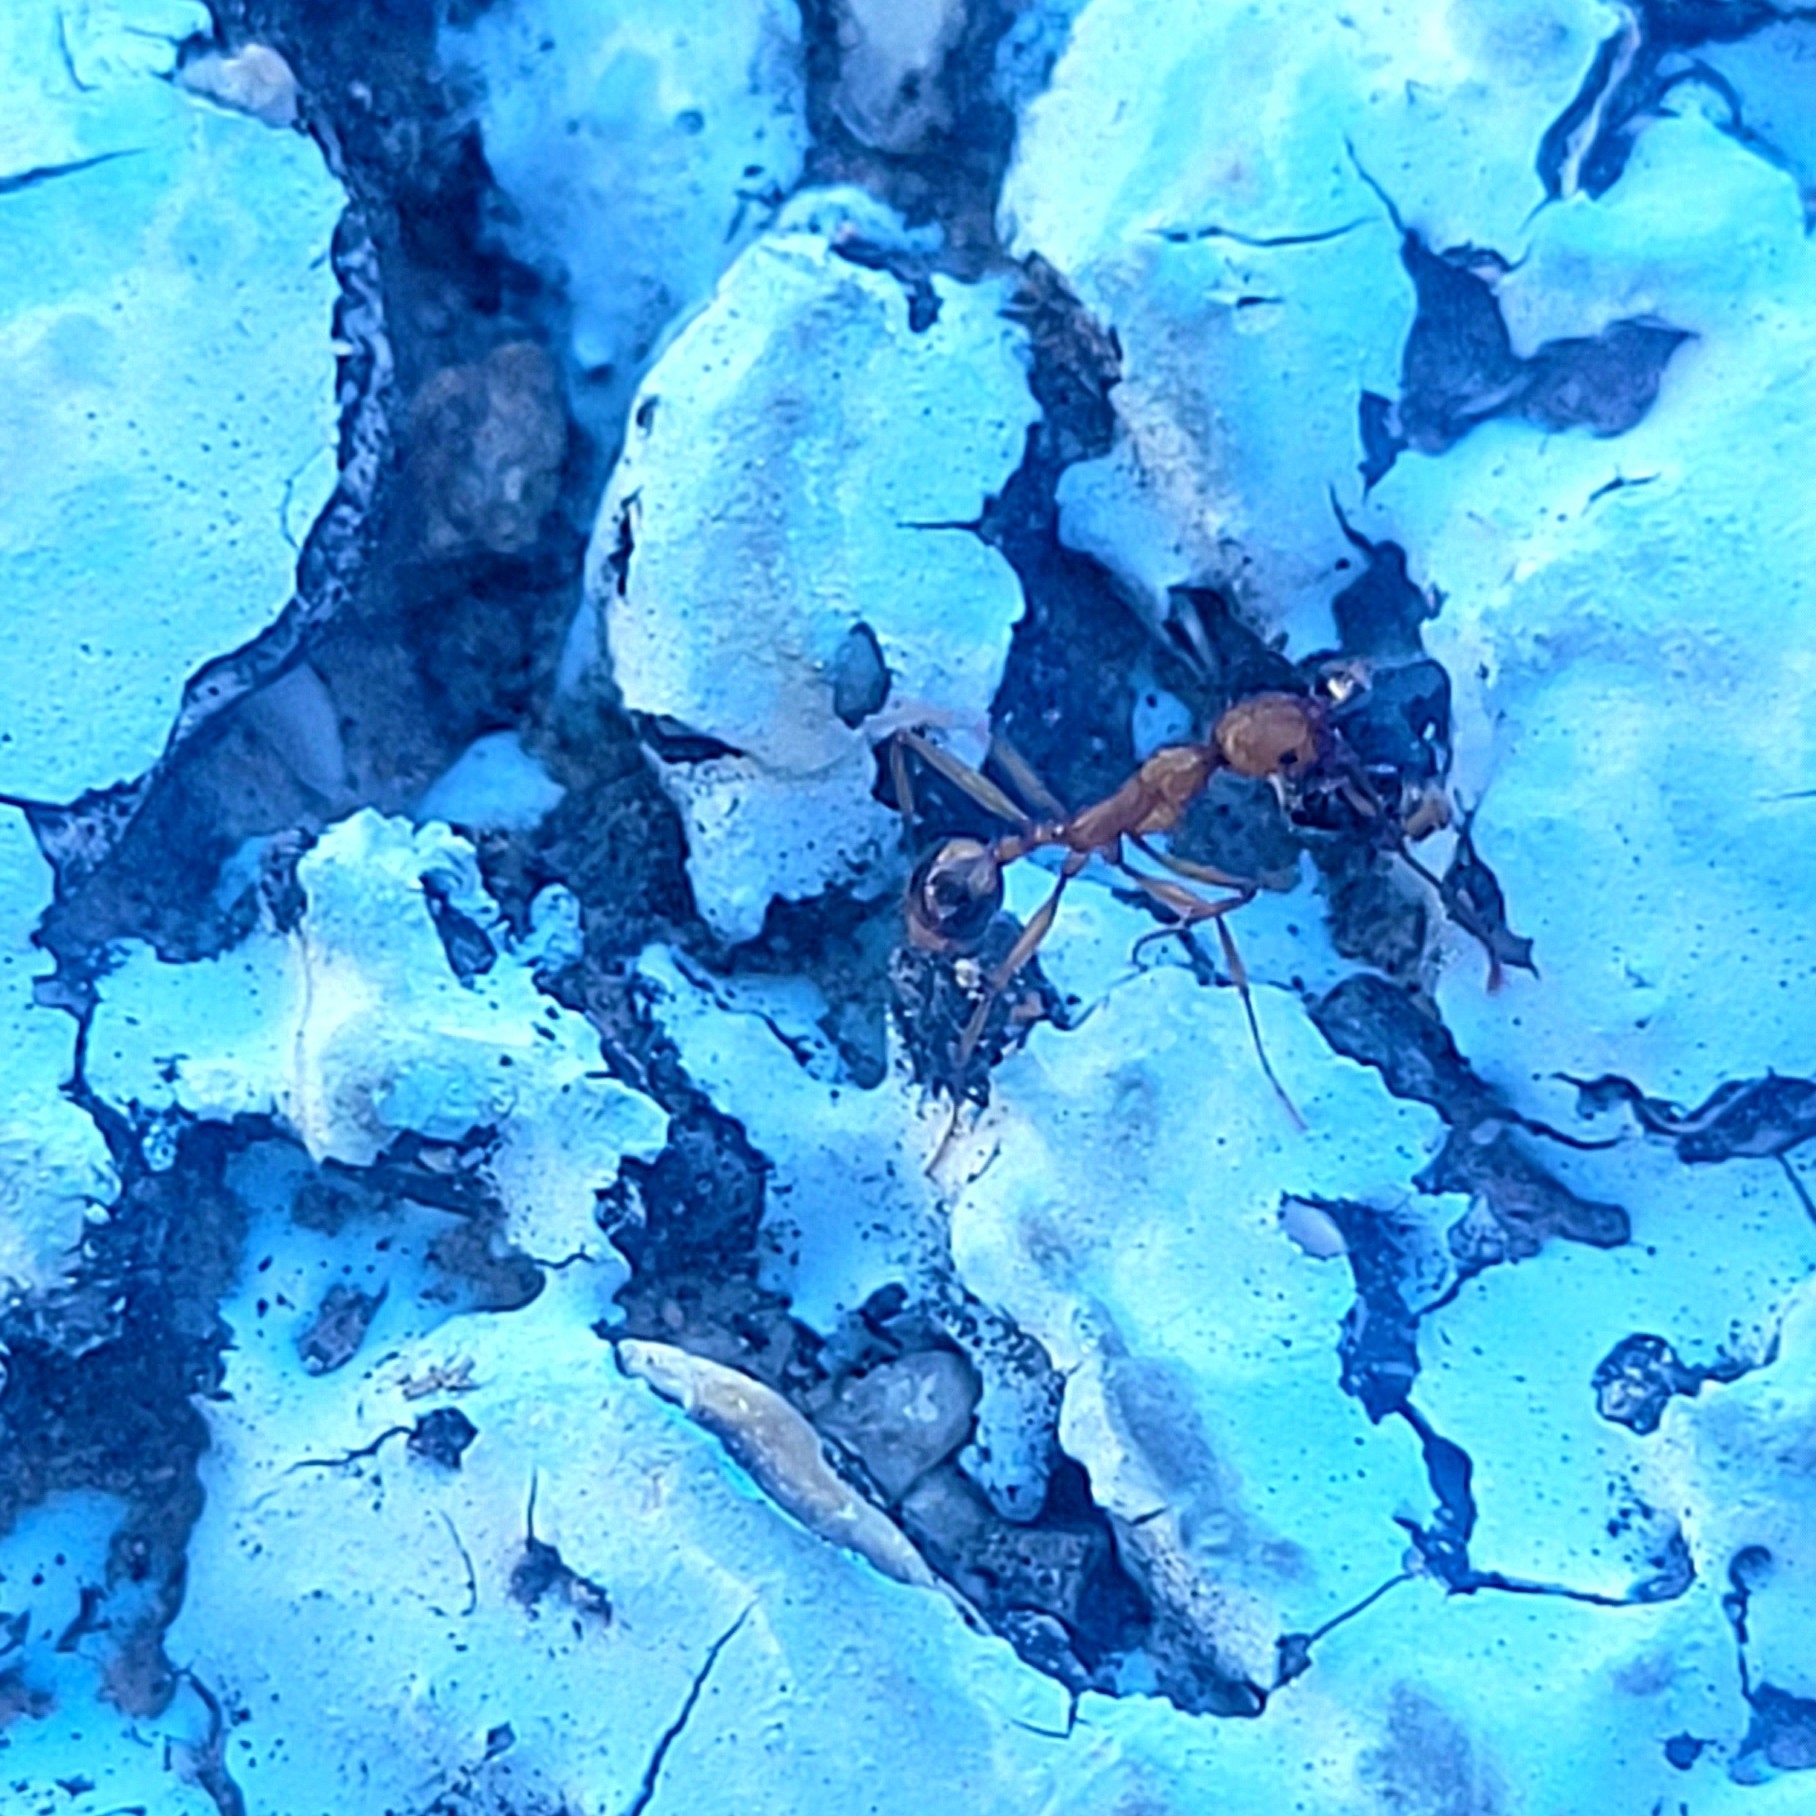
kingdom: Animalia
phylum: Arthropoda
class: Insecta
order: Hymenoptera
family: Formicidae
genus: Aphaenogaster
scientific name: Aphaenogaster splendida
